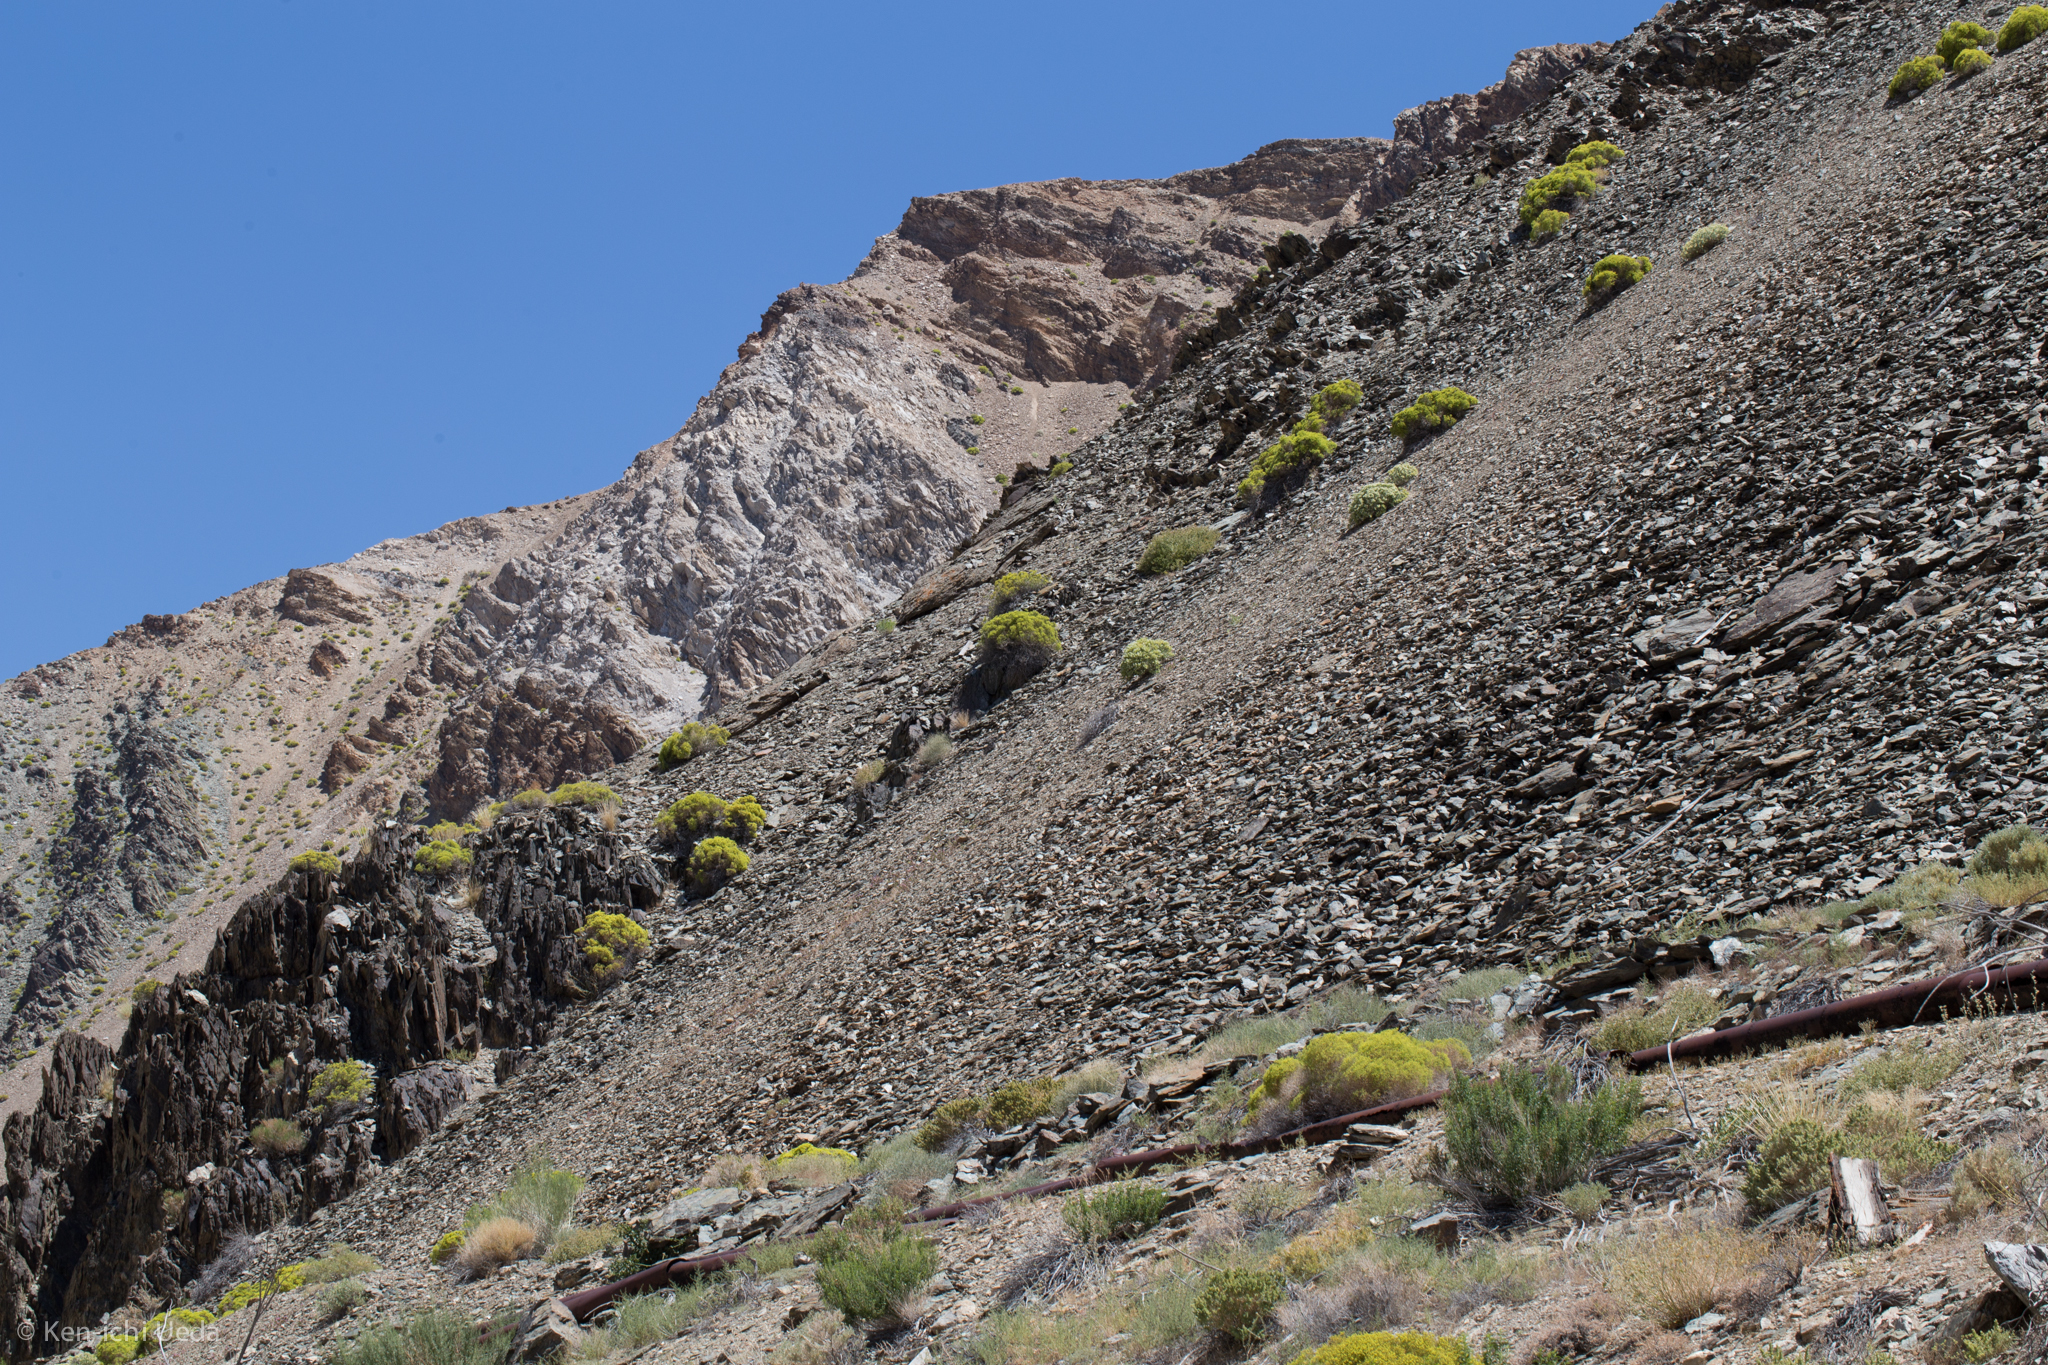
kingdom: Plantae
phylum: Tracheophyta
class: Magnoliopsida
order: Caryophyllales
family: Polygonaceae
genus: Dedeckera
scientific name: Dedeckera eurekensis
